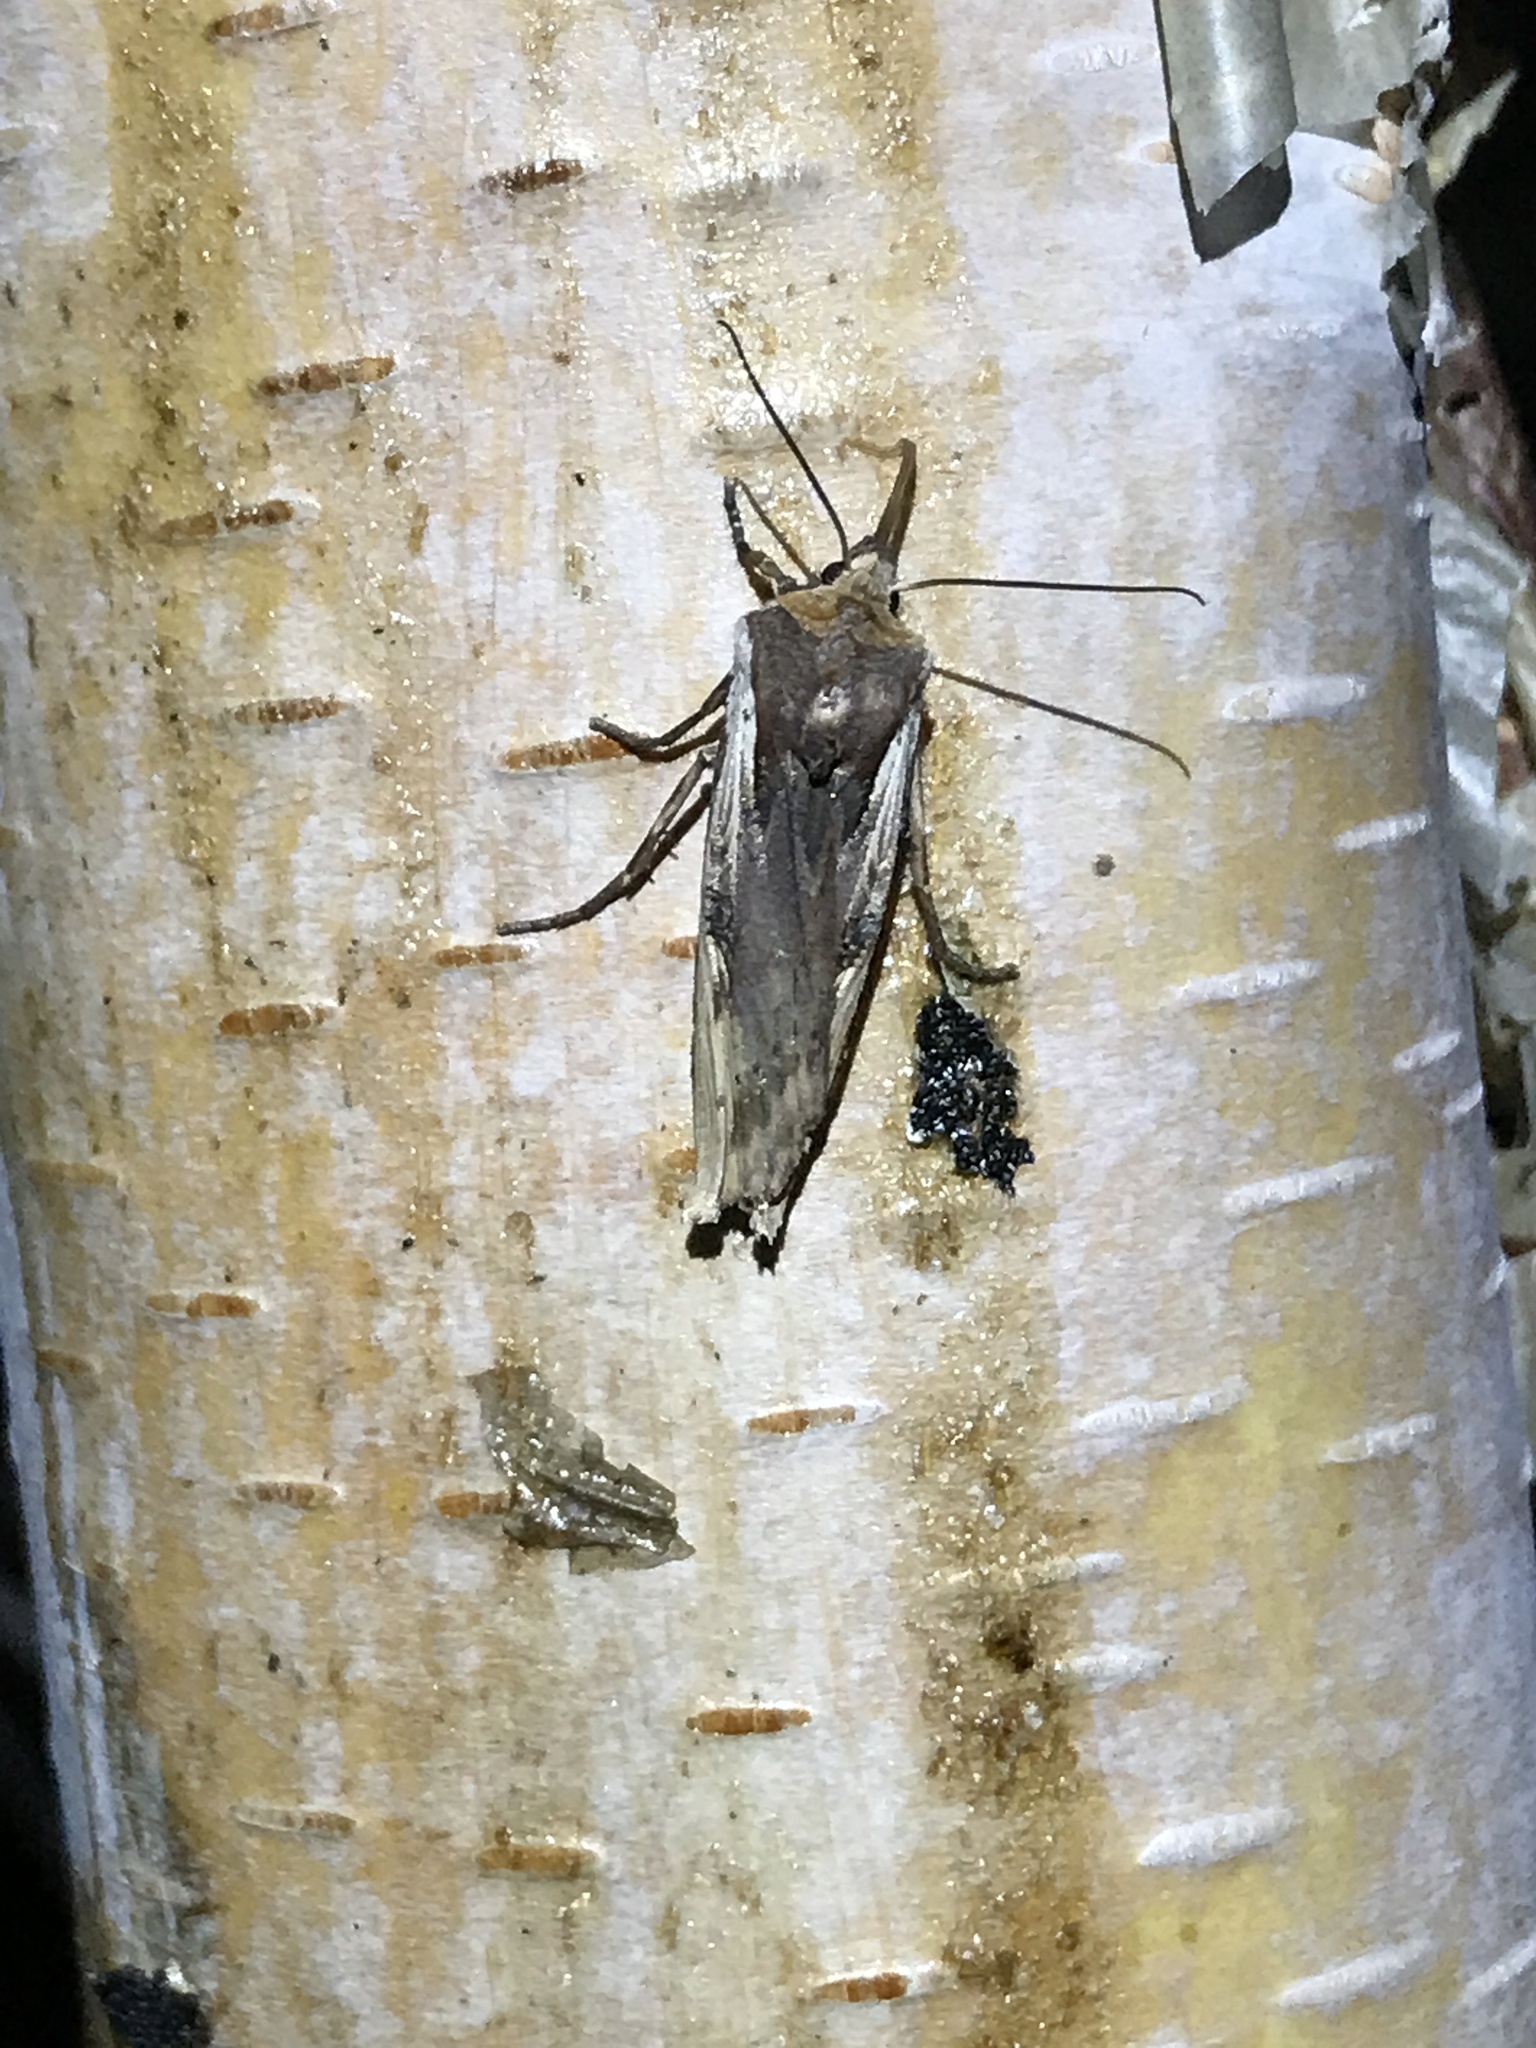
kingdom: Animalia
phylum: Arthropoda
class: Insecta
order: Lepidoptera
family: Noctuidae
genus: Xylena
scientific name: Xylena curvimacula
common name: Dot-and-dash swordgrass moth
